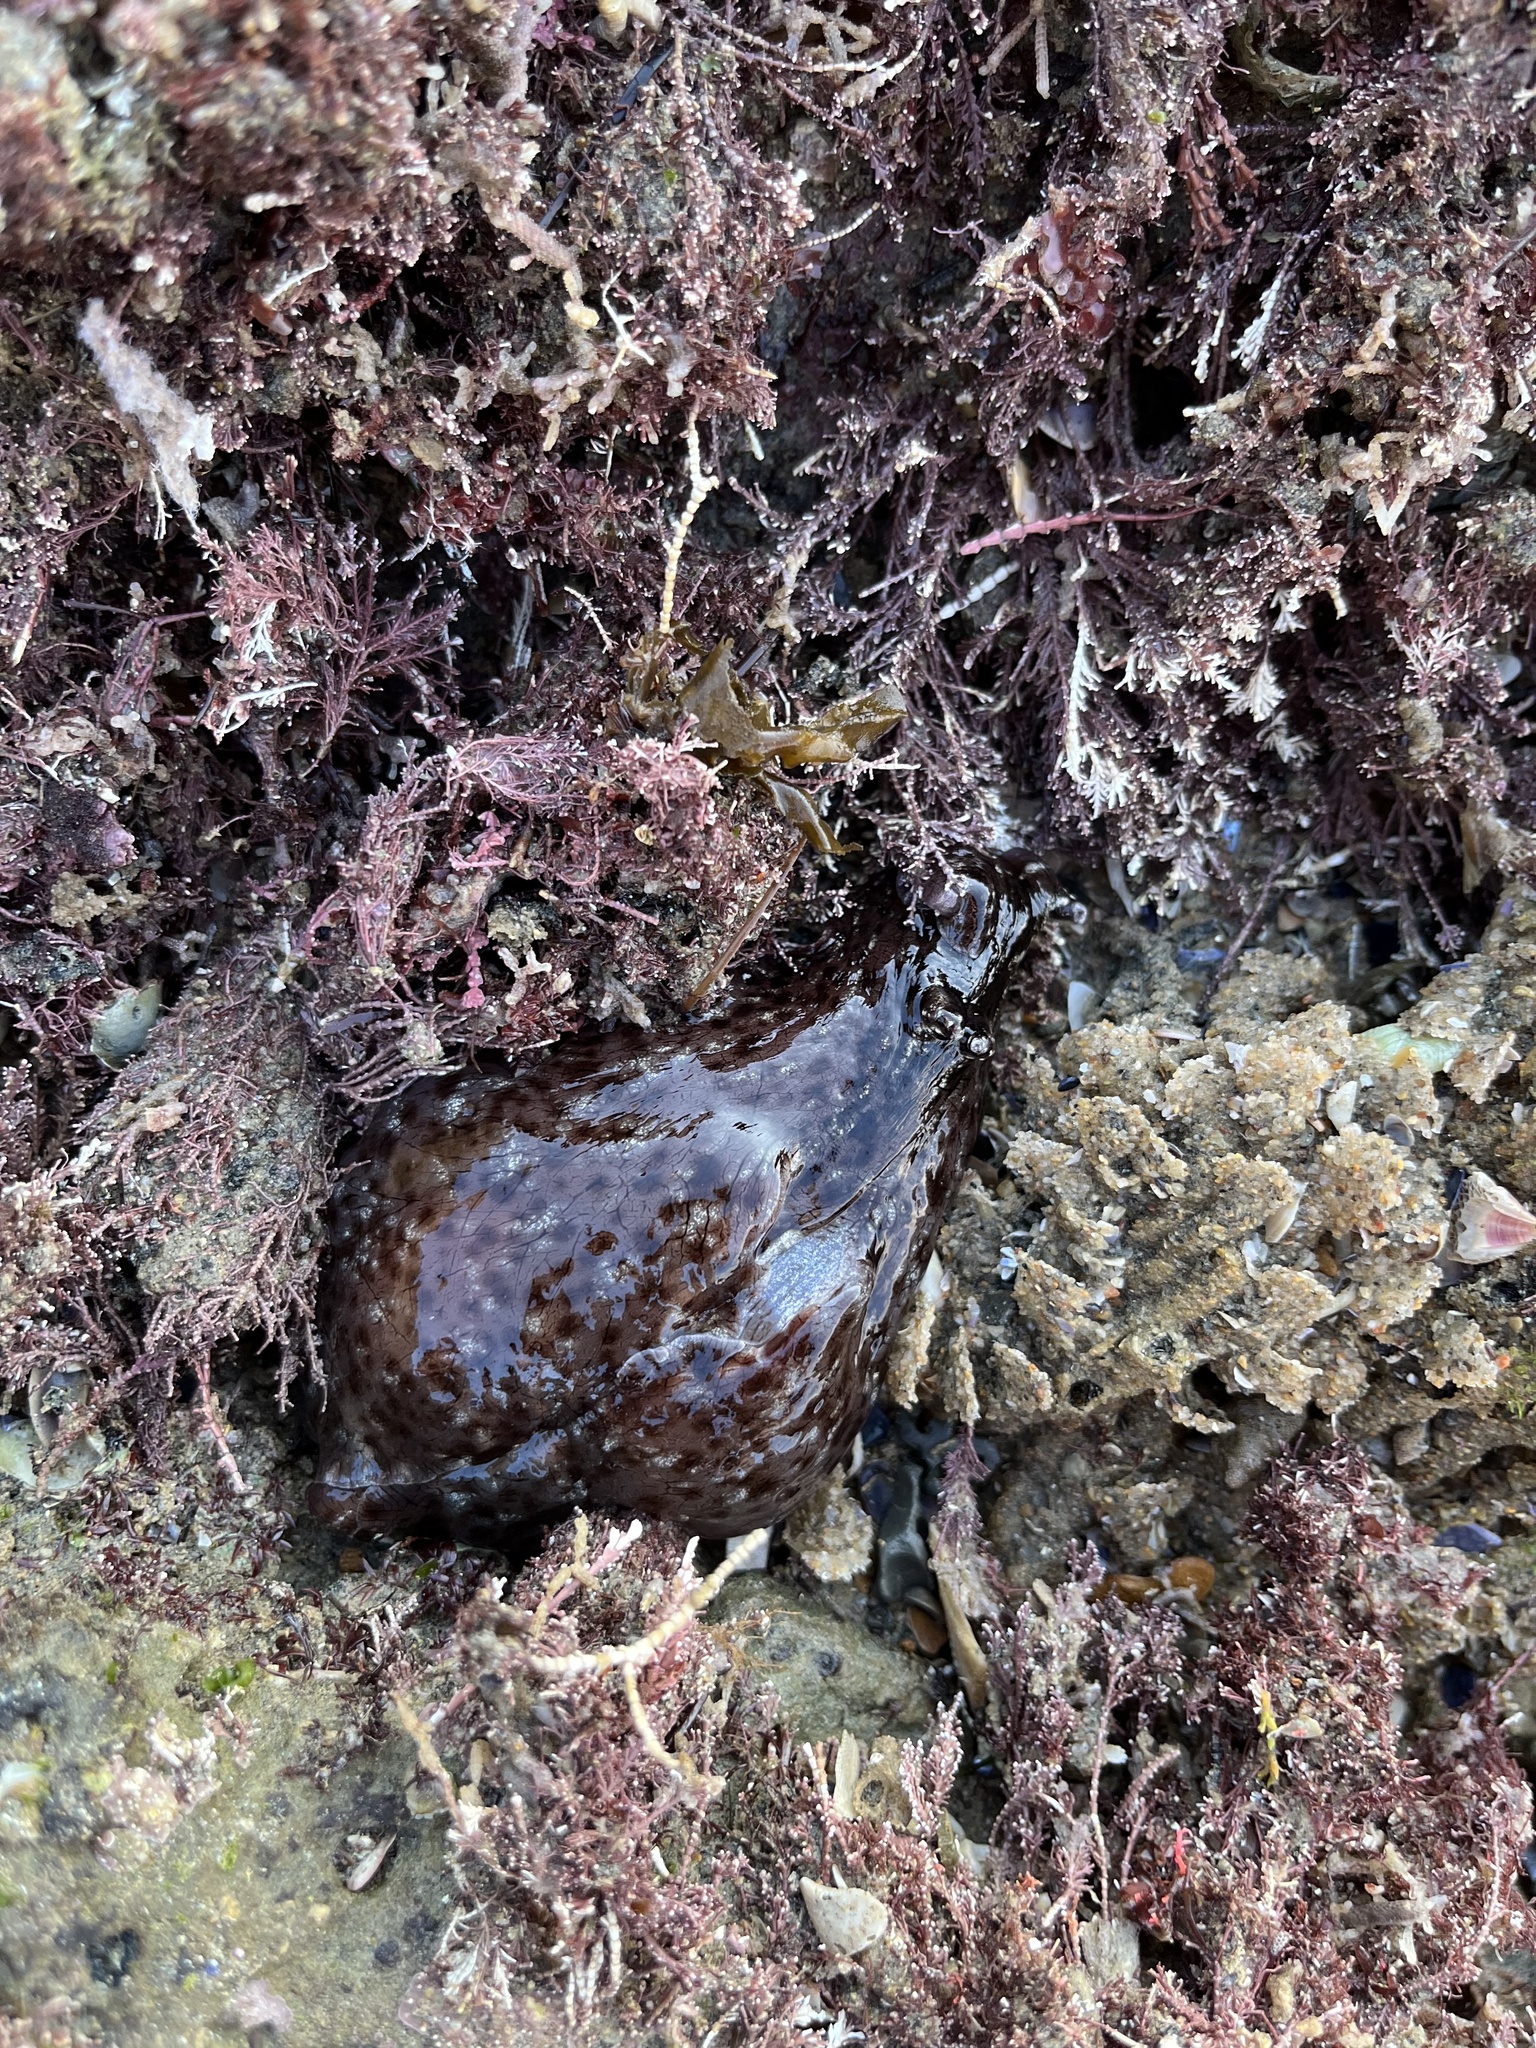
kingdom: Animalia
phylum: Mollusca
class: Gastropoda
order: Aplysiida
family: Aplysiidae
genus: Aplysia
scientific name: Aplysia californica
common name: California seahare
